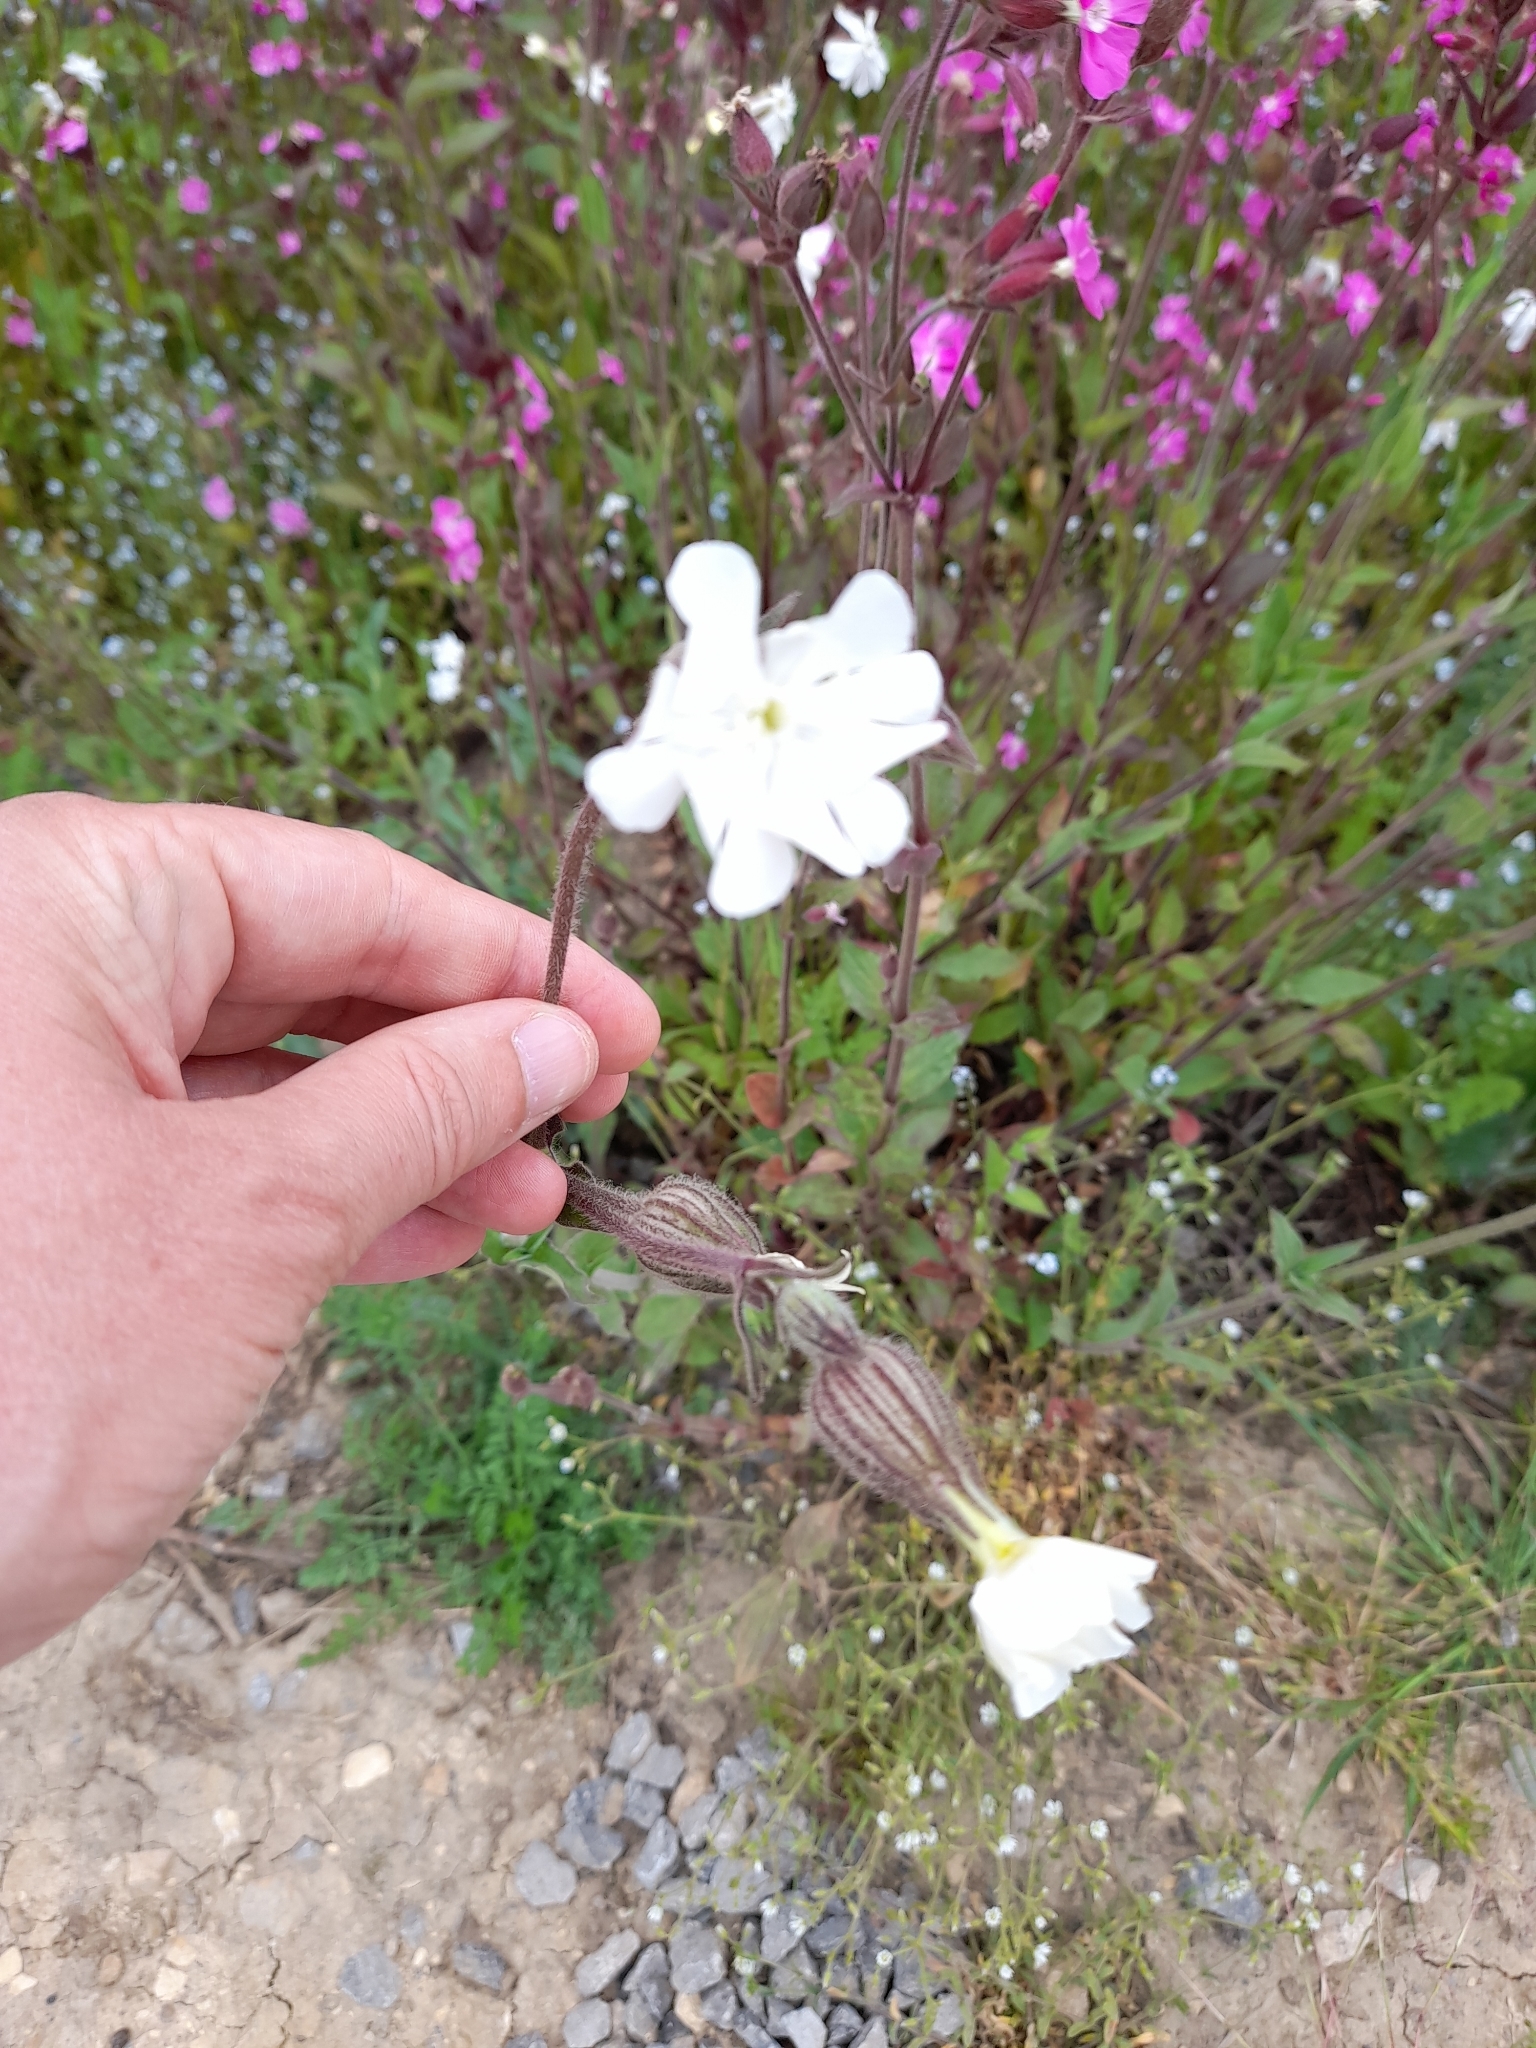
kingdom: Plantae
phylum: Tracheophyta
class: Magnoliopsida
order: Caryophyllales
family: Caryophyllaceae
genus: Silene
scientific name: Silene latifolia
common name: White campion
